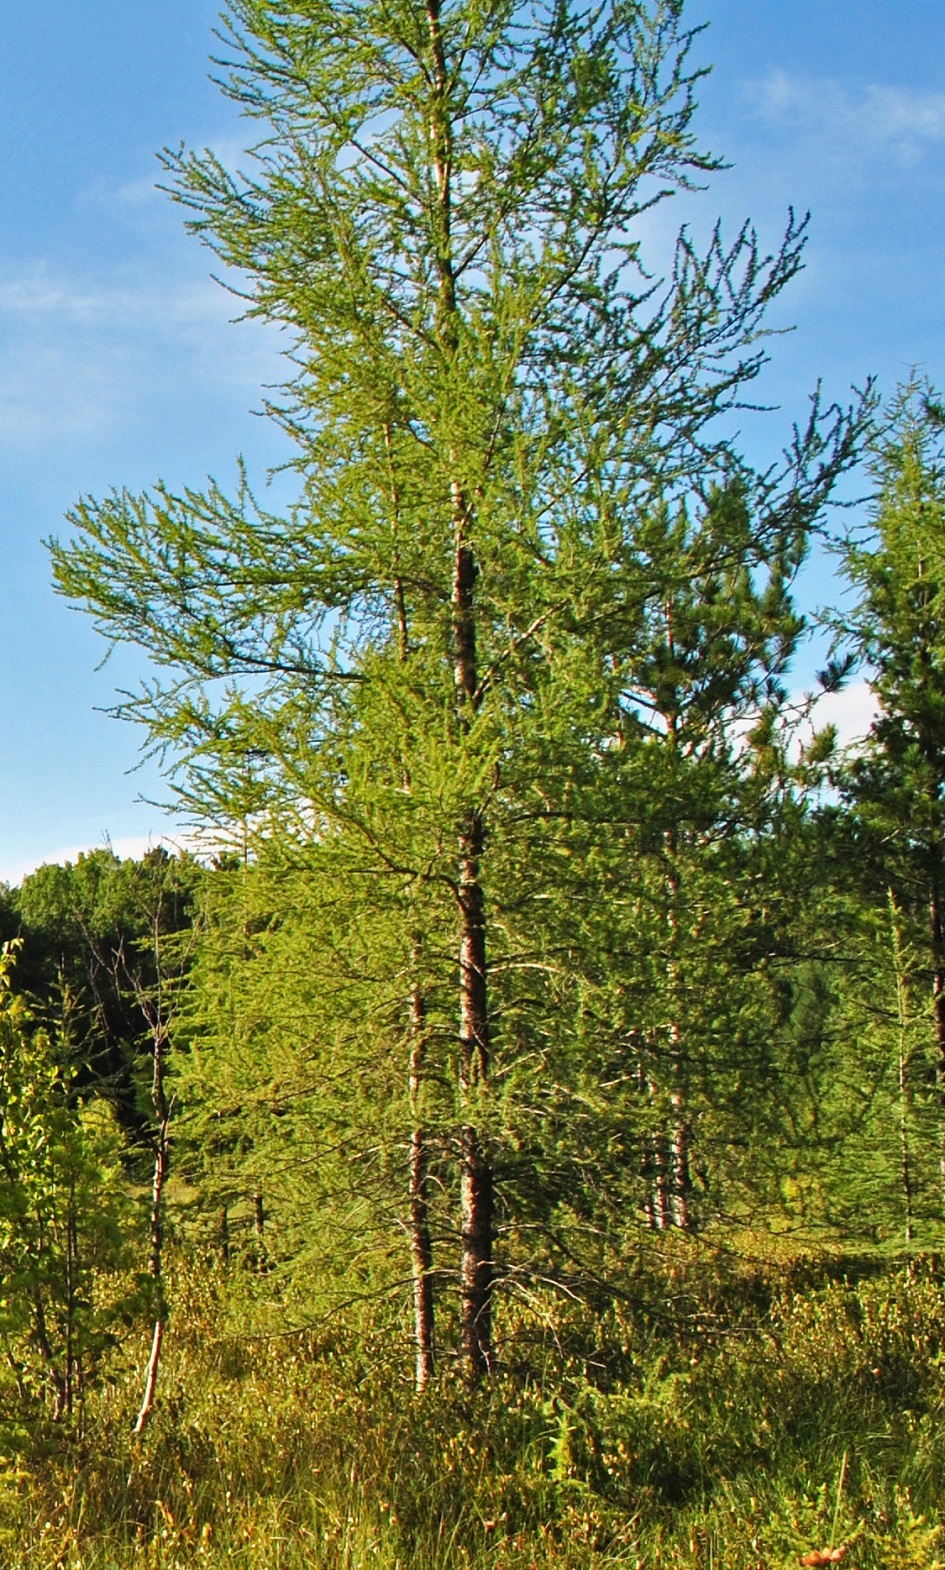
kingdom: Plantae
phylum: Tracheophyta
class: Pinopsida
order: Pinales
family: Pinaceae
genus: Larix
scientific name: Larix laricina
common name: American larch
